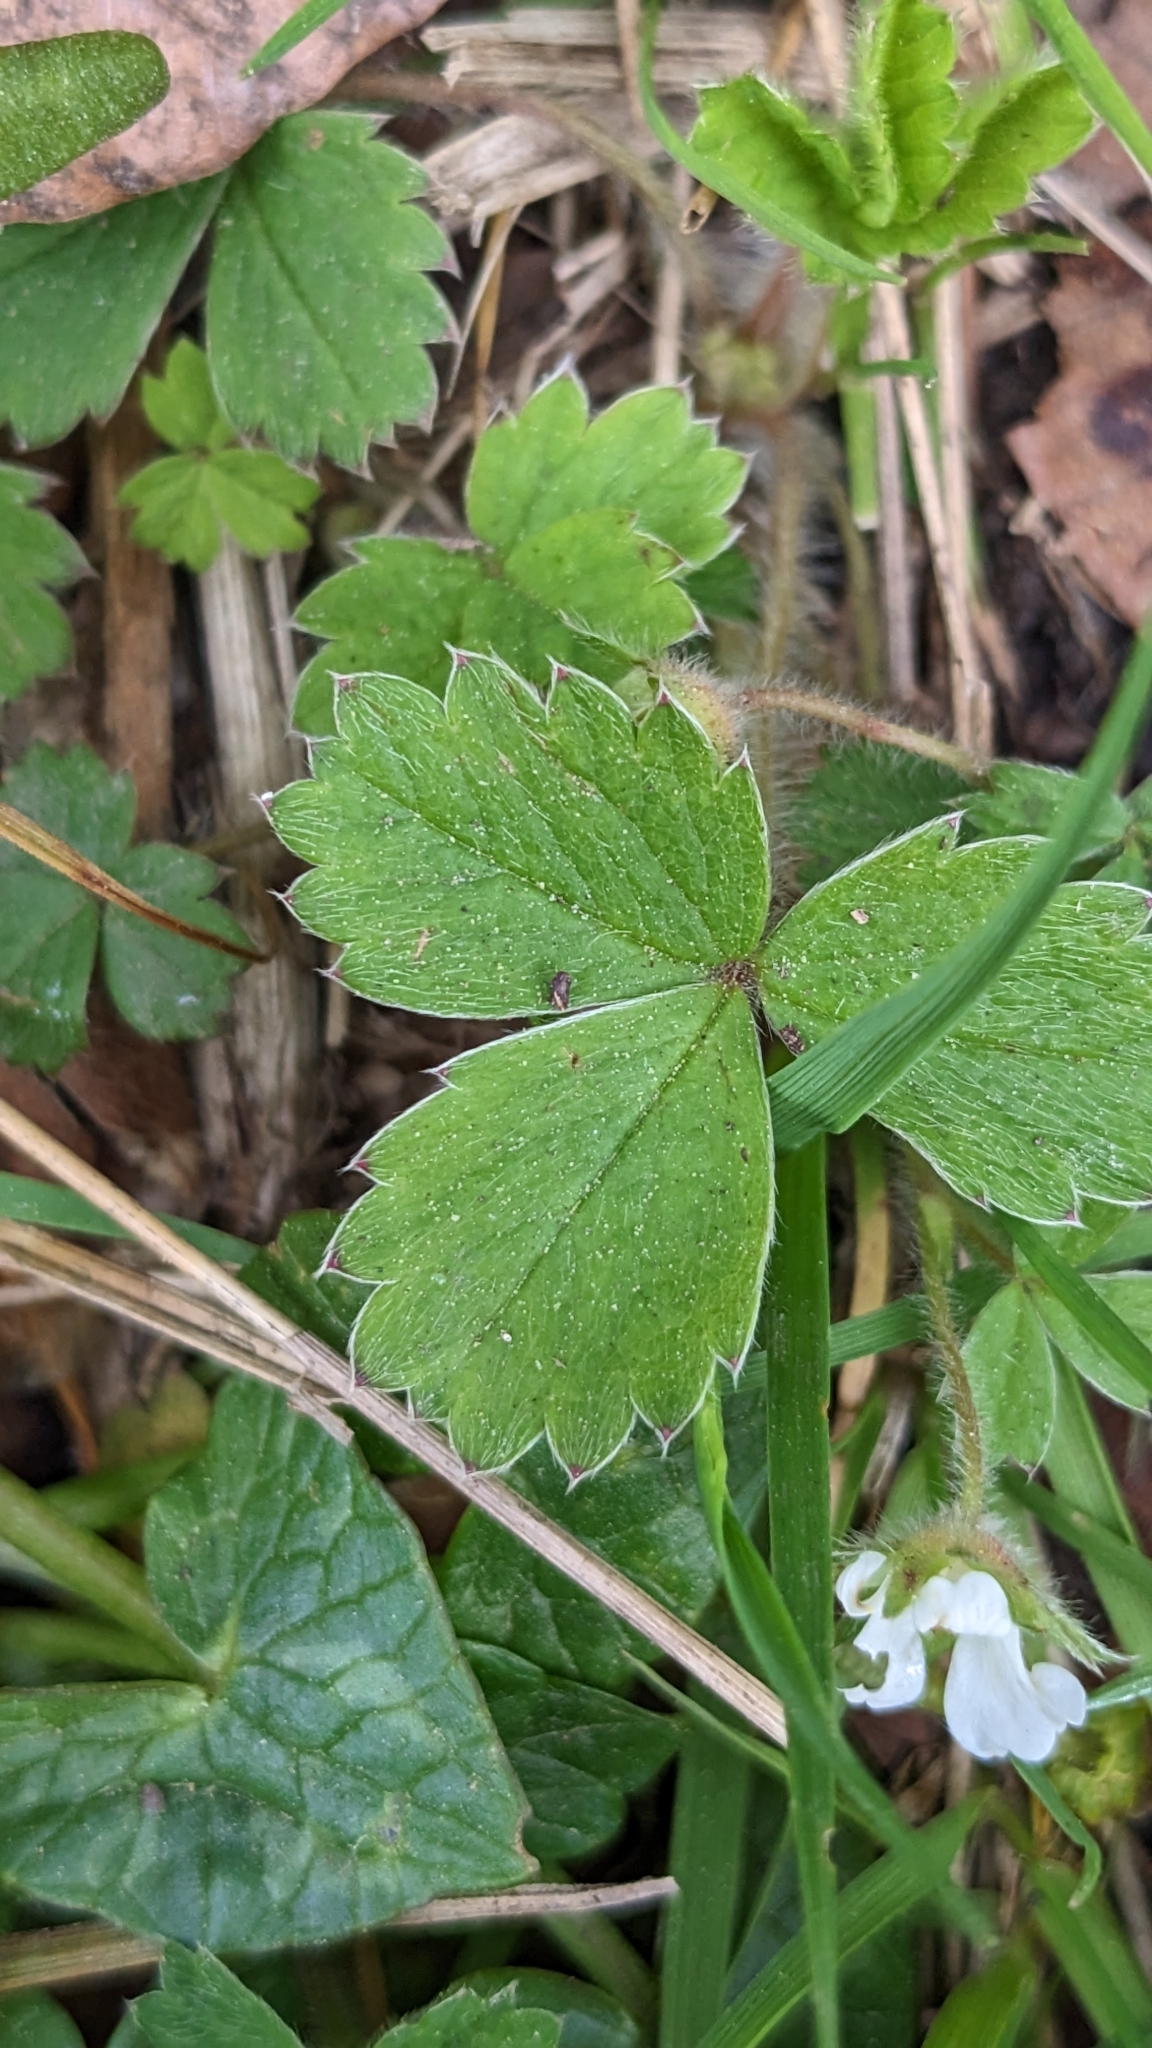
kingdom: Plantae
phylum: Tracheophyta
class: Magnoliopsida
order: Rosales
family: Rosaceae
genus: Potentilla
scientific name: Potentilla sterilis
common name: Barren strawberry
